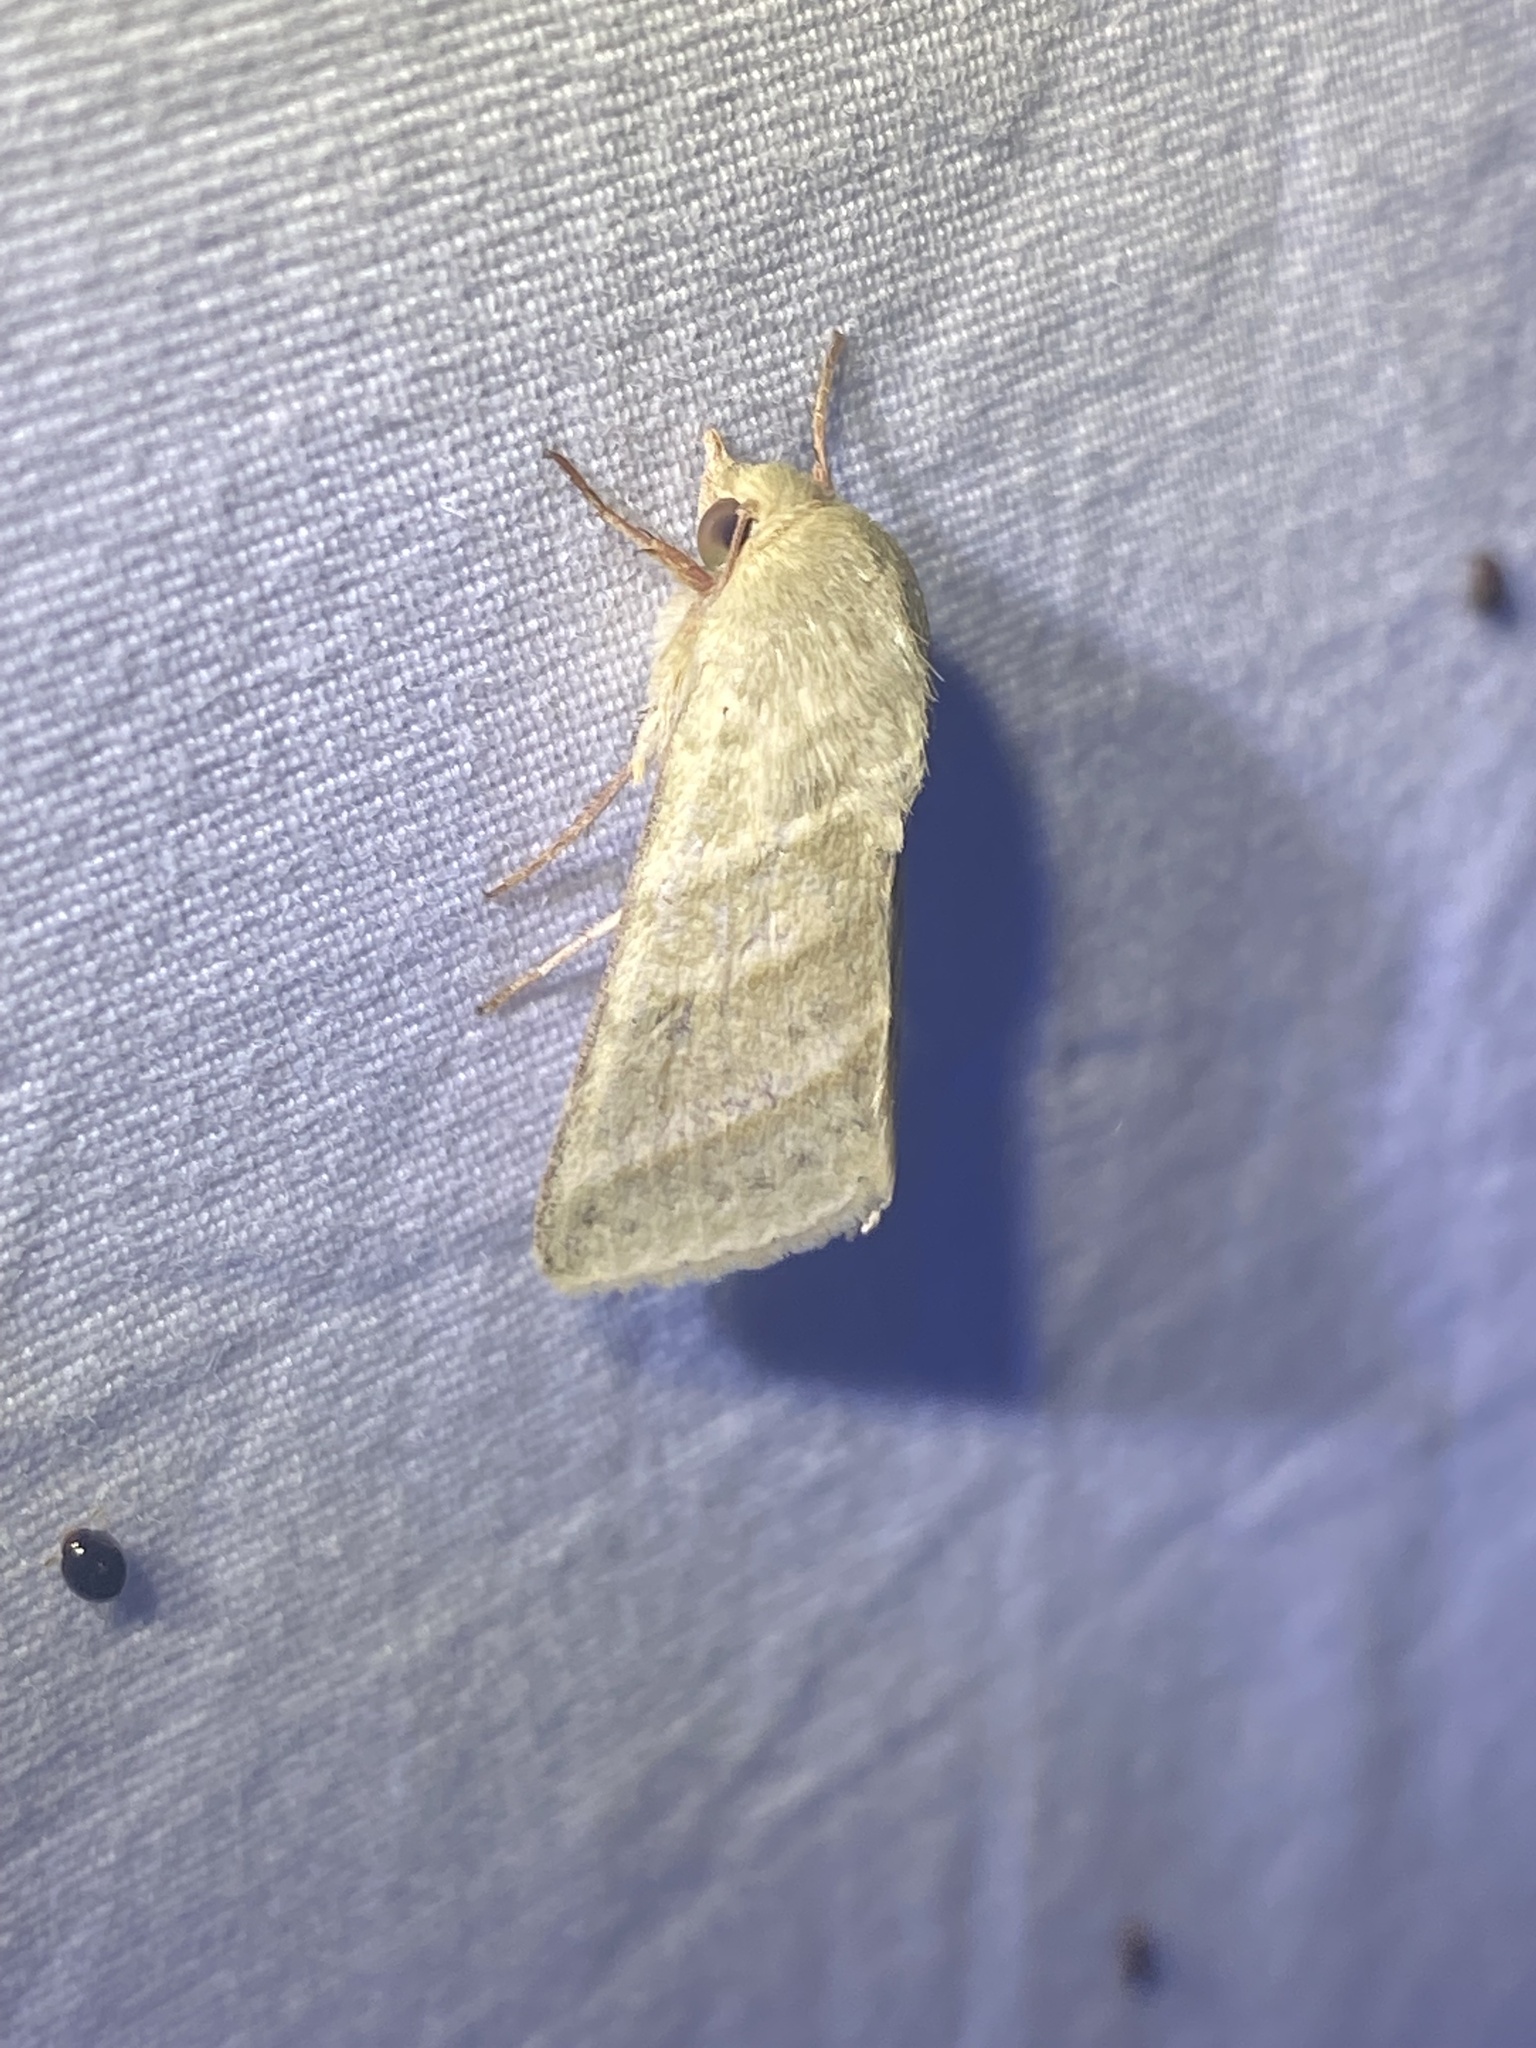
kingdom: Animalia
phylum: Arthropoda
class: Insecta
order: Lepidoptera
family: Noctuidae
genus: Chloridea
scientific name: Chloridea virescens
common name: Tobacco budworm
